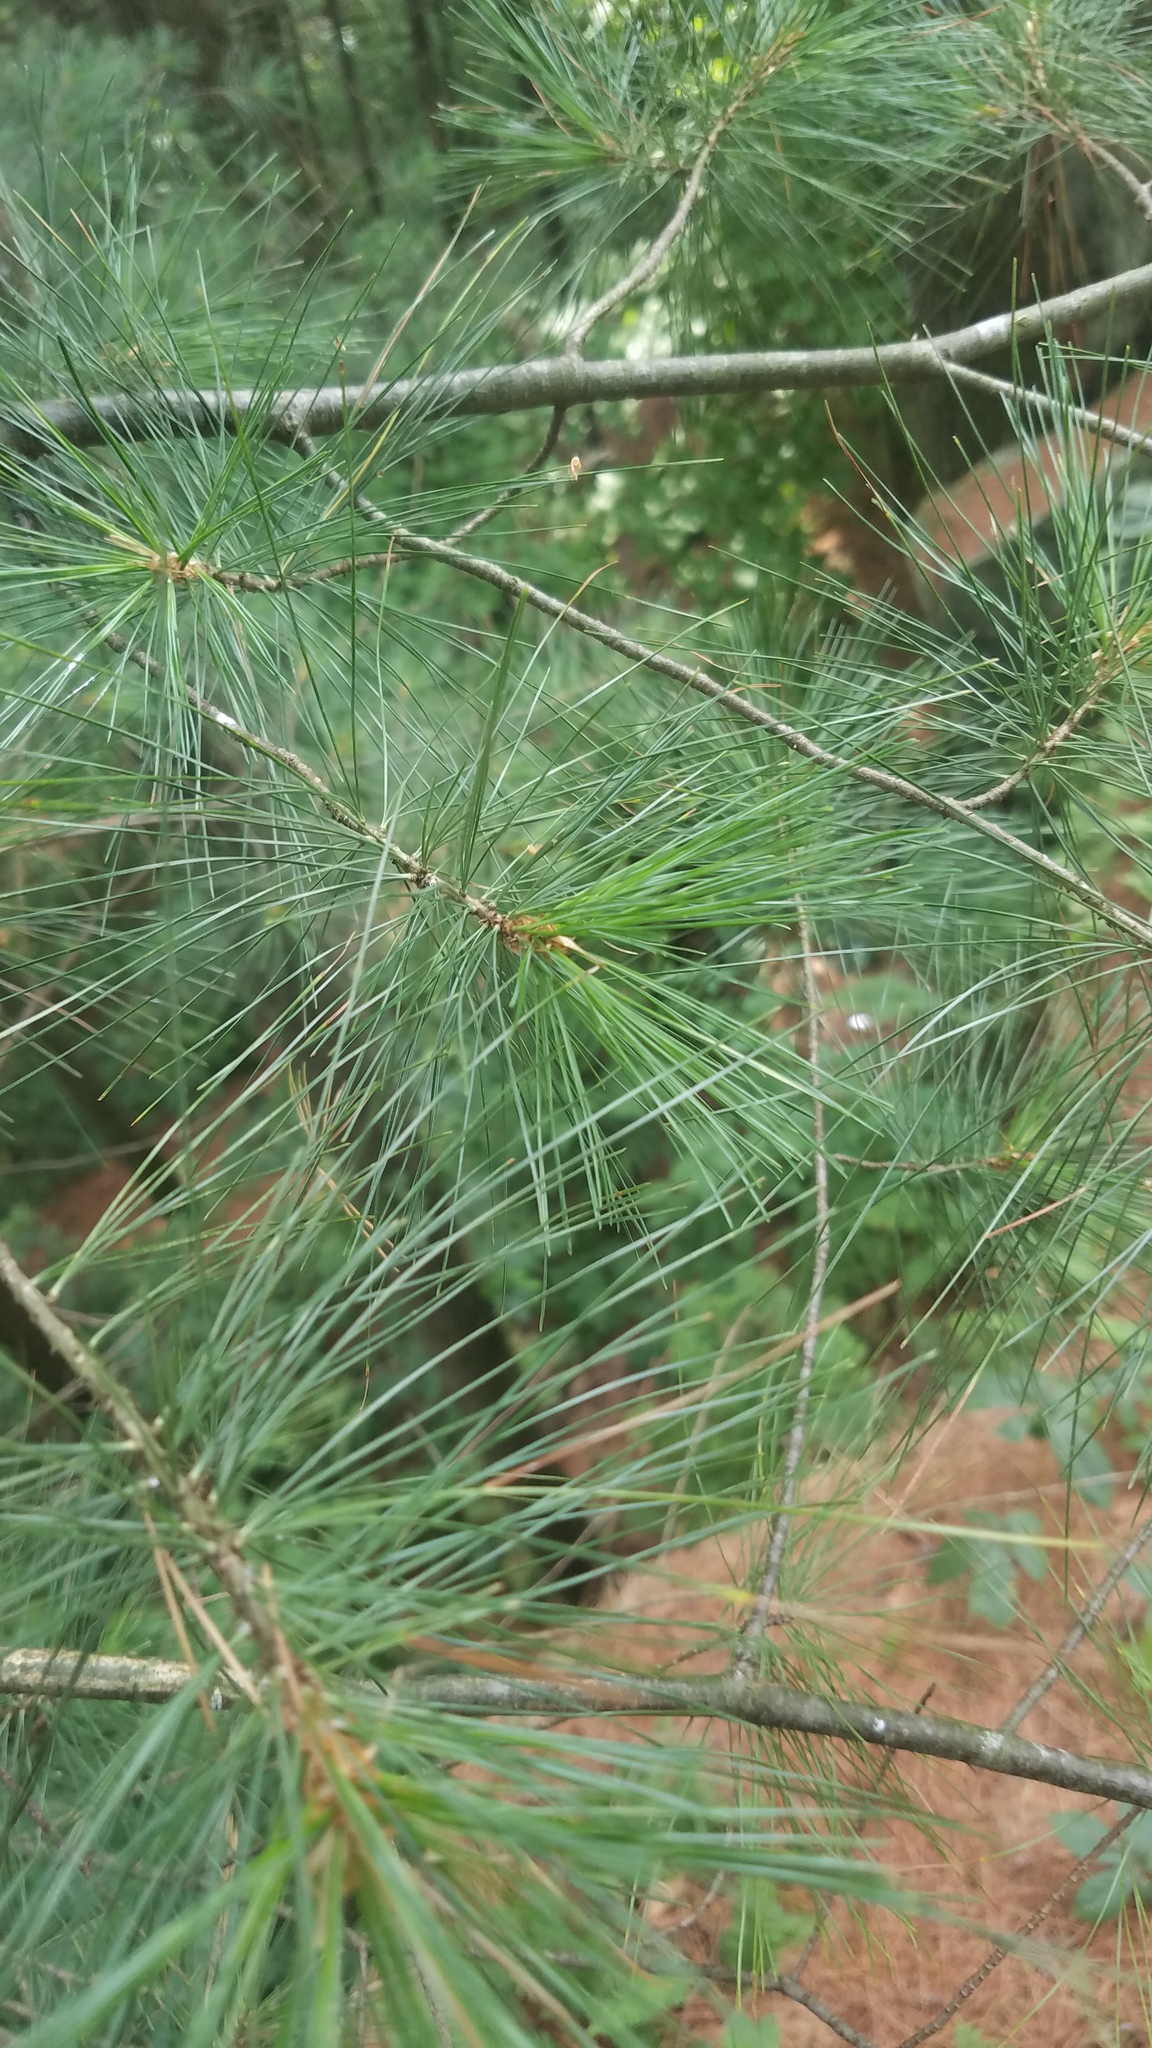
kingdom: Plantae
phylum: Tracheophyta
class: Pinopsida
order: Pinales
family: Pinaceae
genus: Pinus
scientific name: Pinus strobus
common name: Weymouth pine
